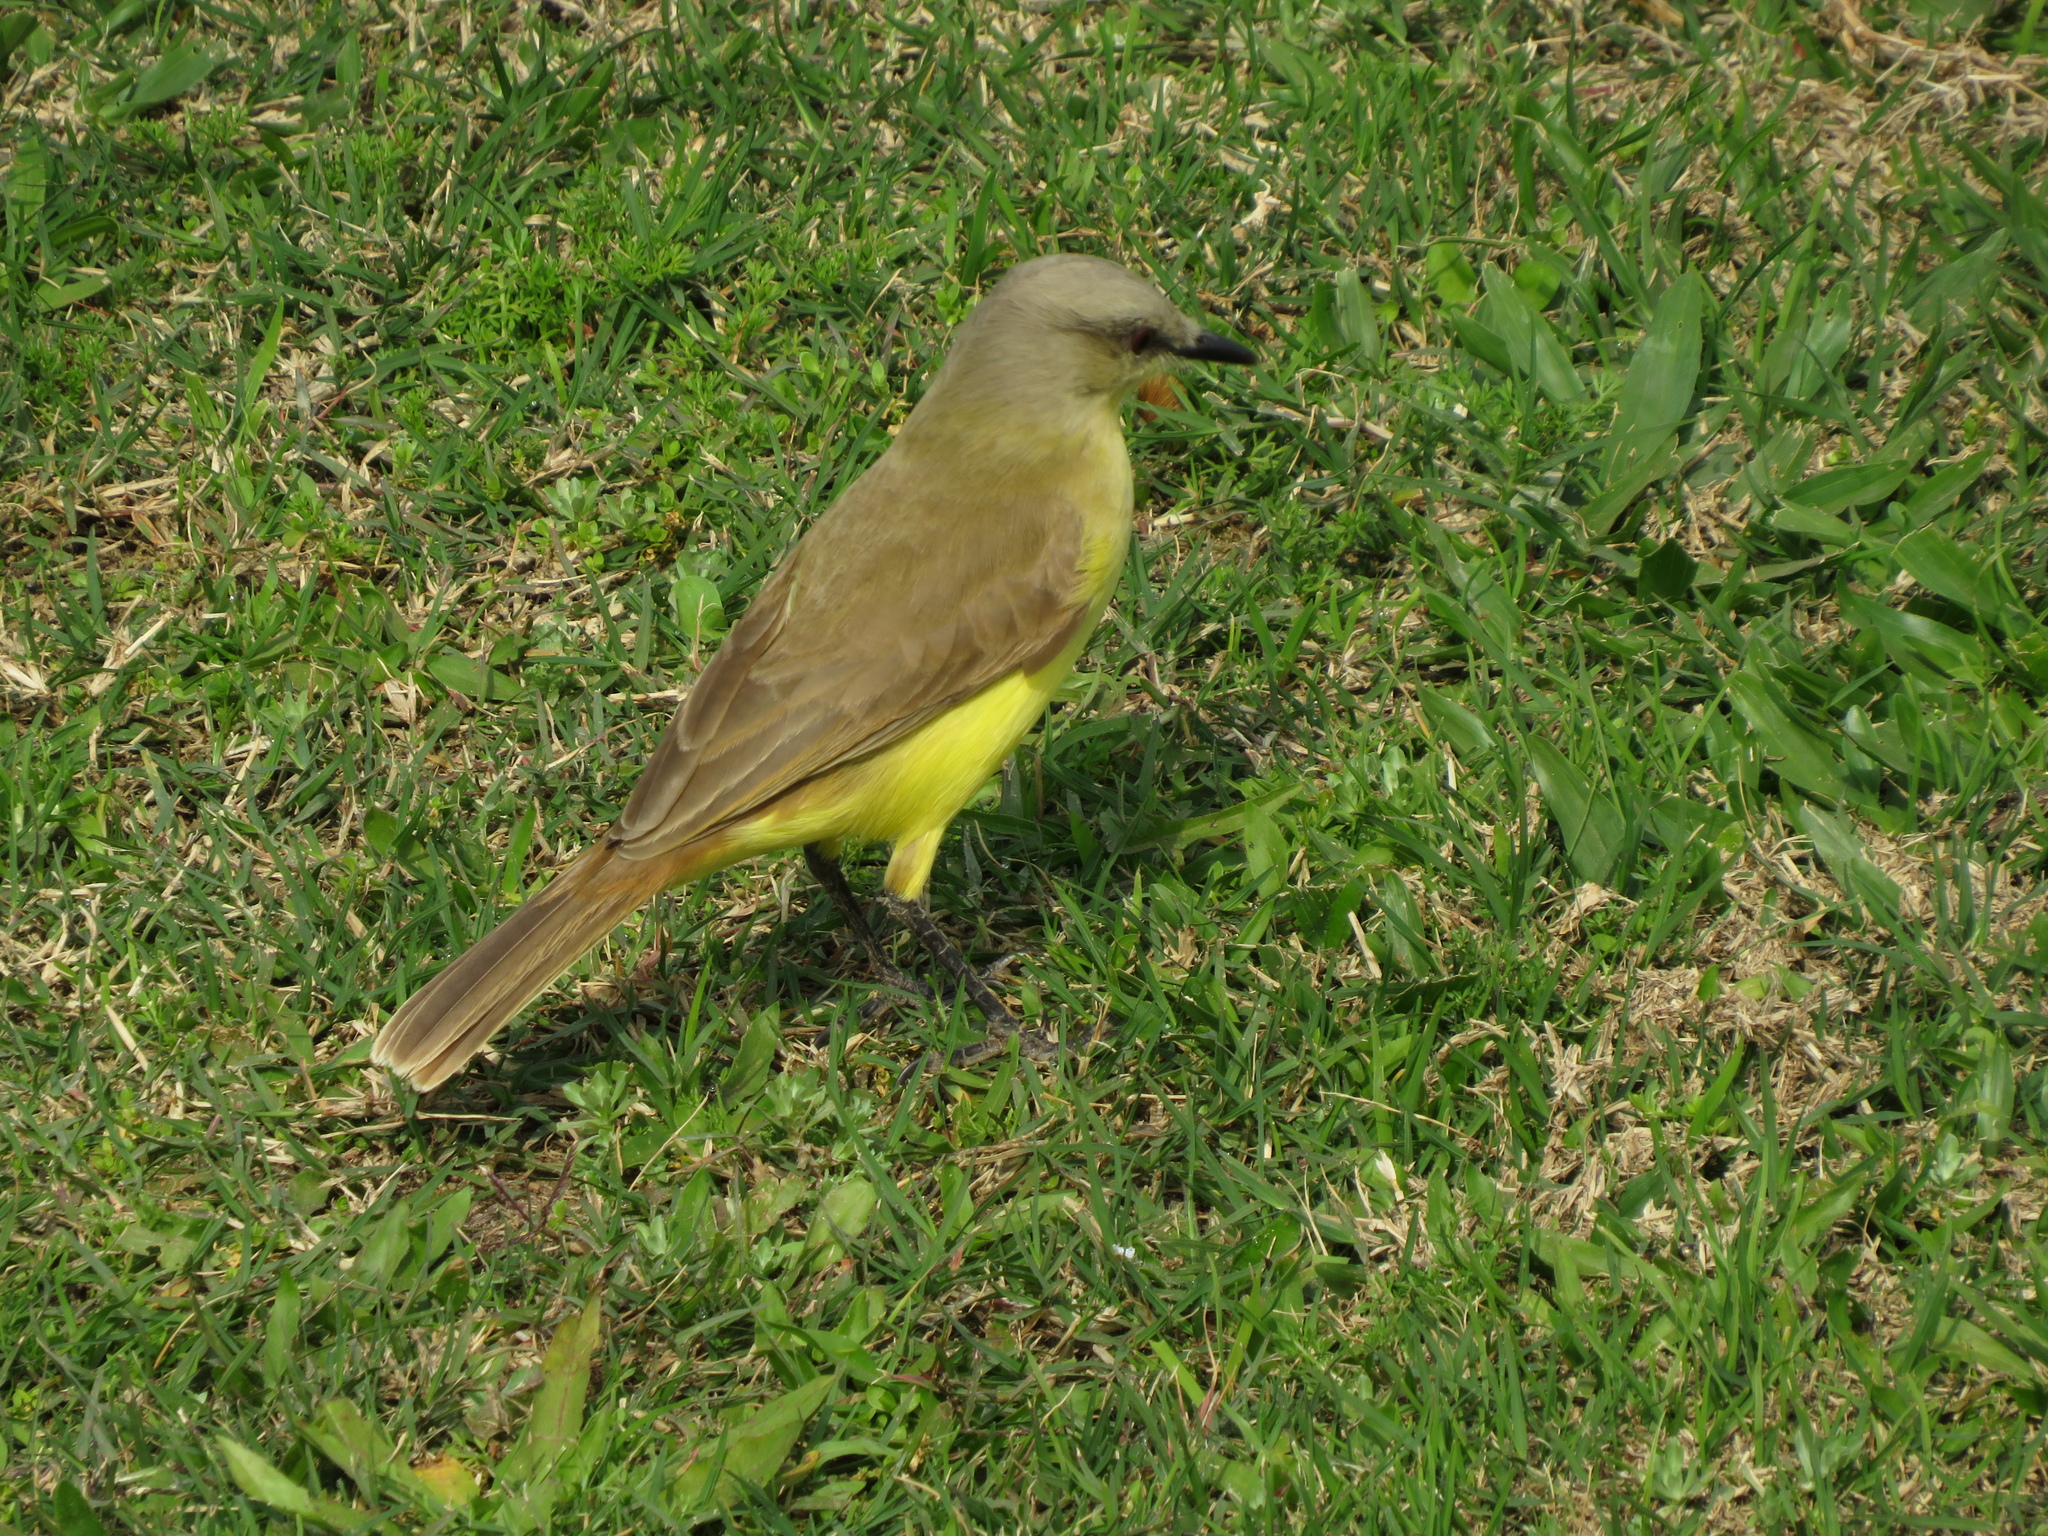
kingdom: Animalia
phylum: Chordata
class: Aves
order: Passeriformes
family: Tyrannidae
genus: Machetornis
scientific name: Machetornis rixosa
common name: Cattle tyrant
